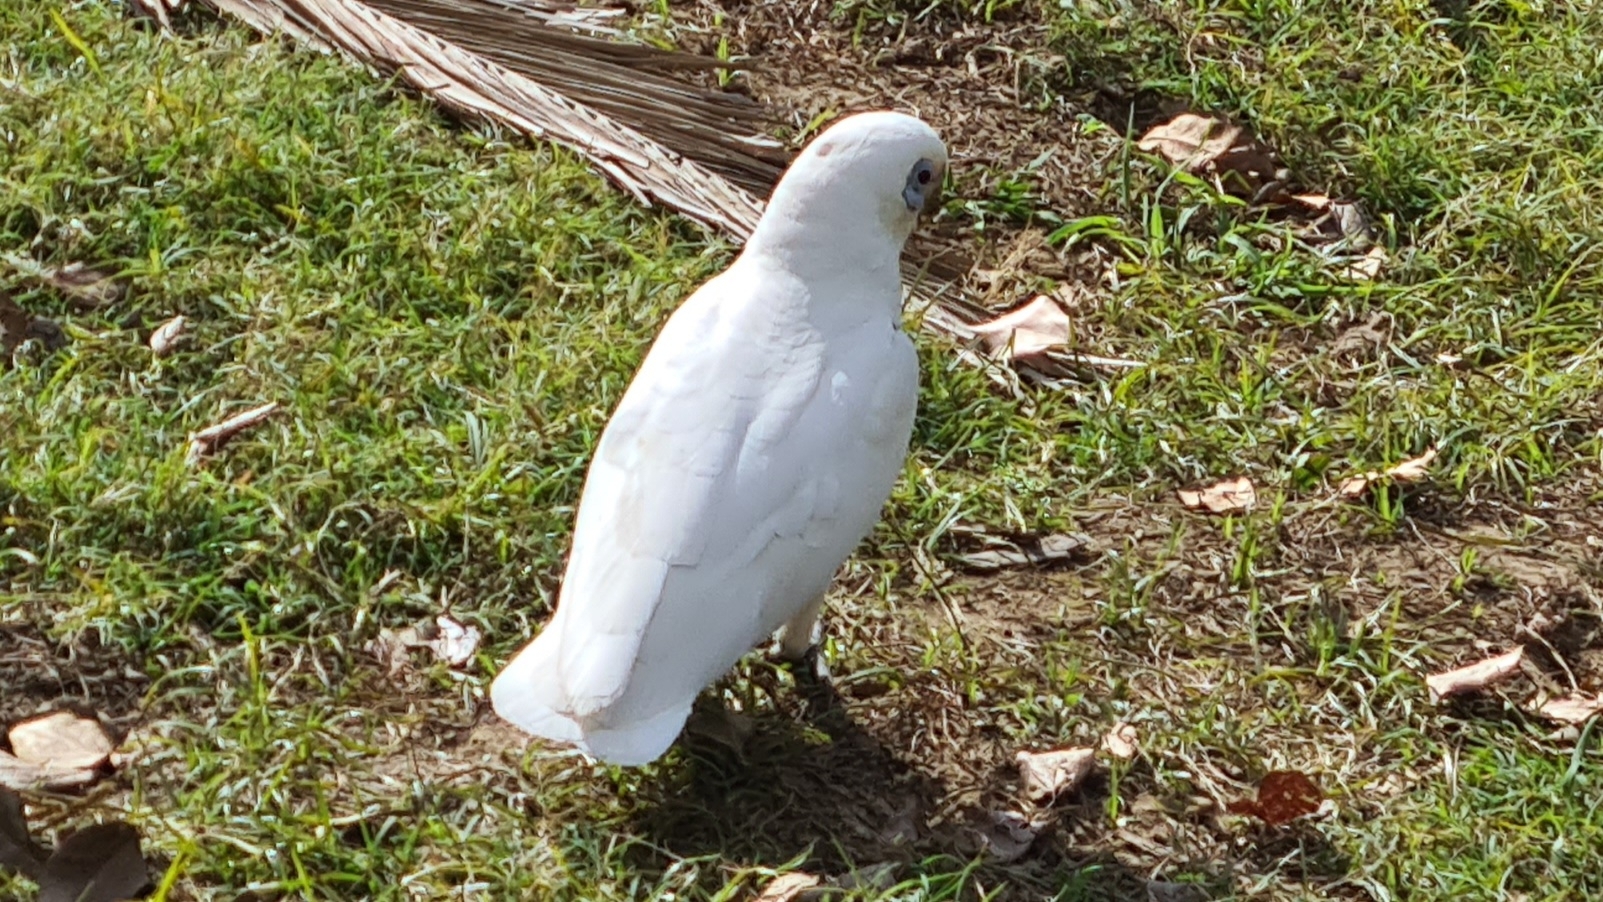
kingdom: Animalia
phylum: Chordata
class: Aves
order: Psittaciformes
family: Psittacidae
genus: Cacatua
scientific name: Cacatua sanguinea
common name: Little corella
